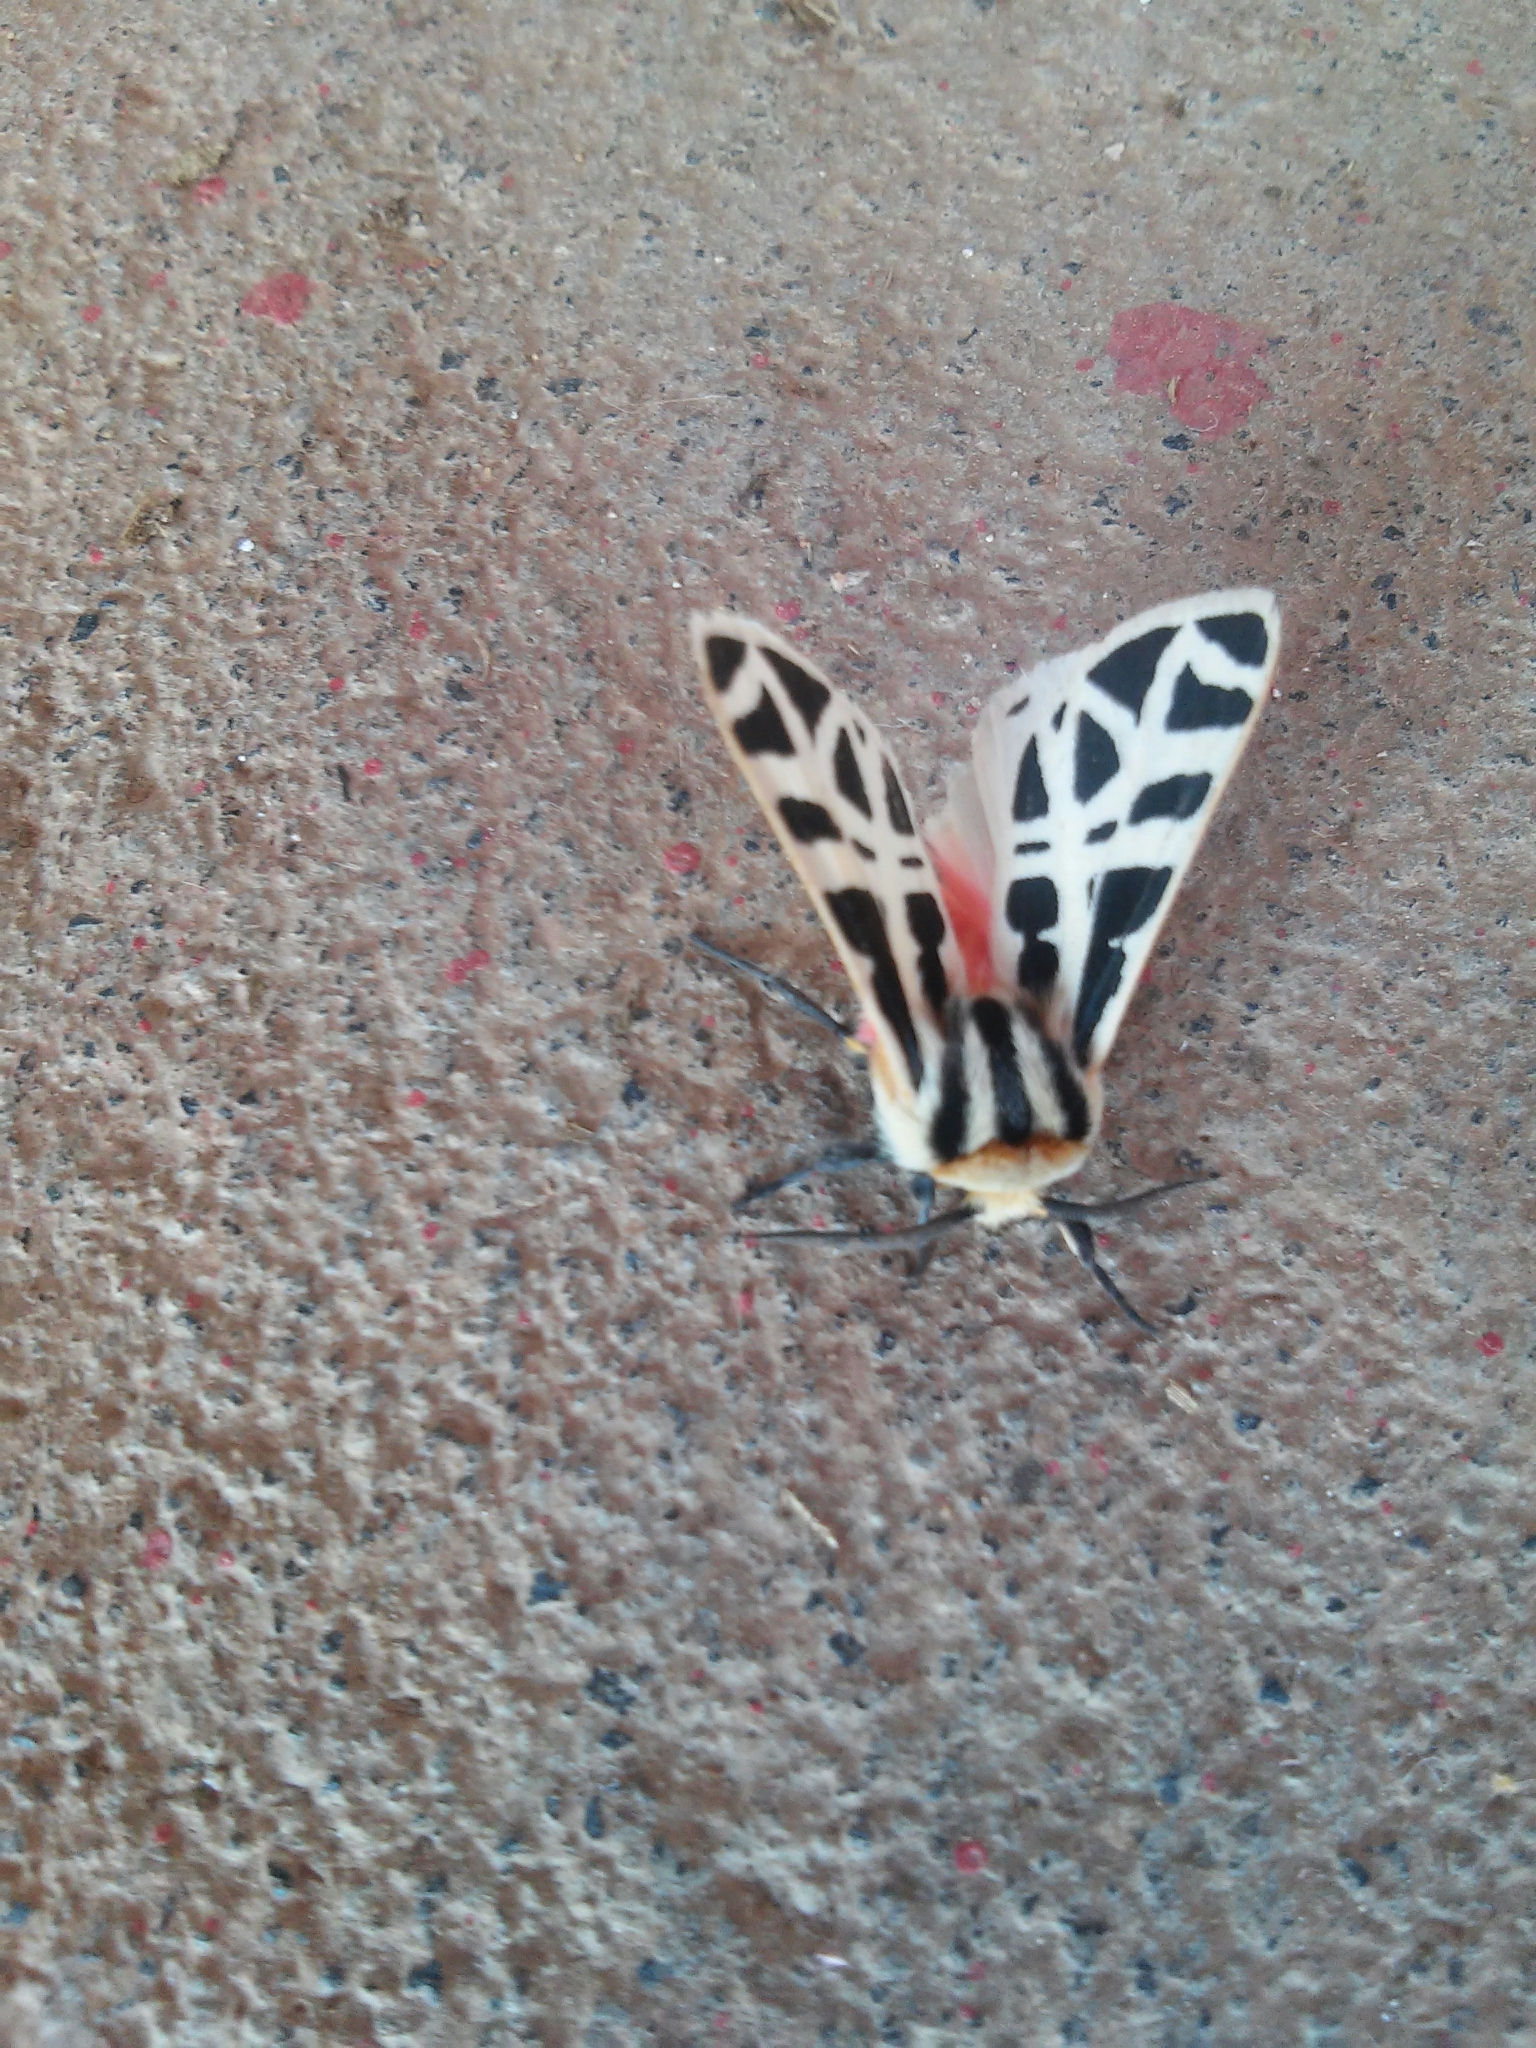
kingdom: Animalia
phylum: Arthropoda
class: Insecta
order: Lepidoptera
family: Erebidae
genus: Apantesis
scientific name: Apantesis
